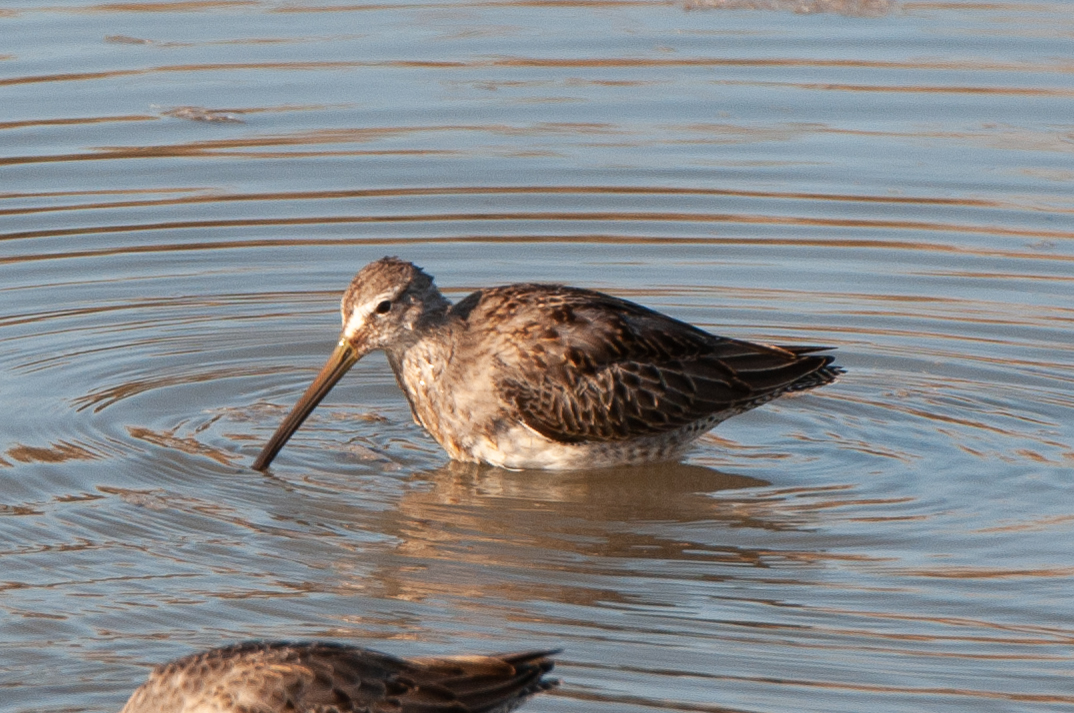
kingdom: Animalia
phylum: Chordata
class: Aves
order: Charadriiformes
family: Scolopacidae
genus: Limnodromus
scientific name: Limnodromus scolopaceus
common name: Long-billed dowitcher
